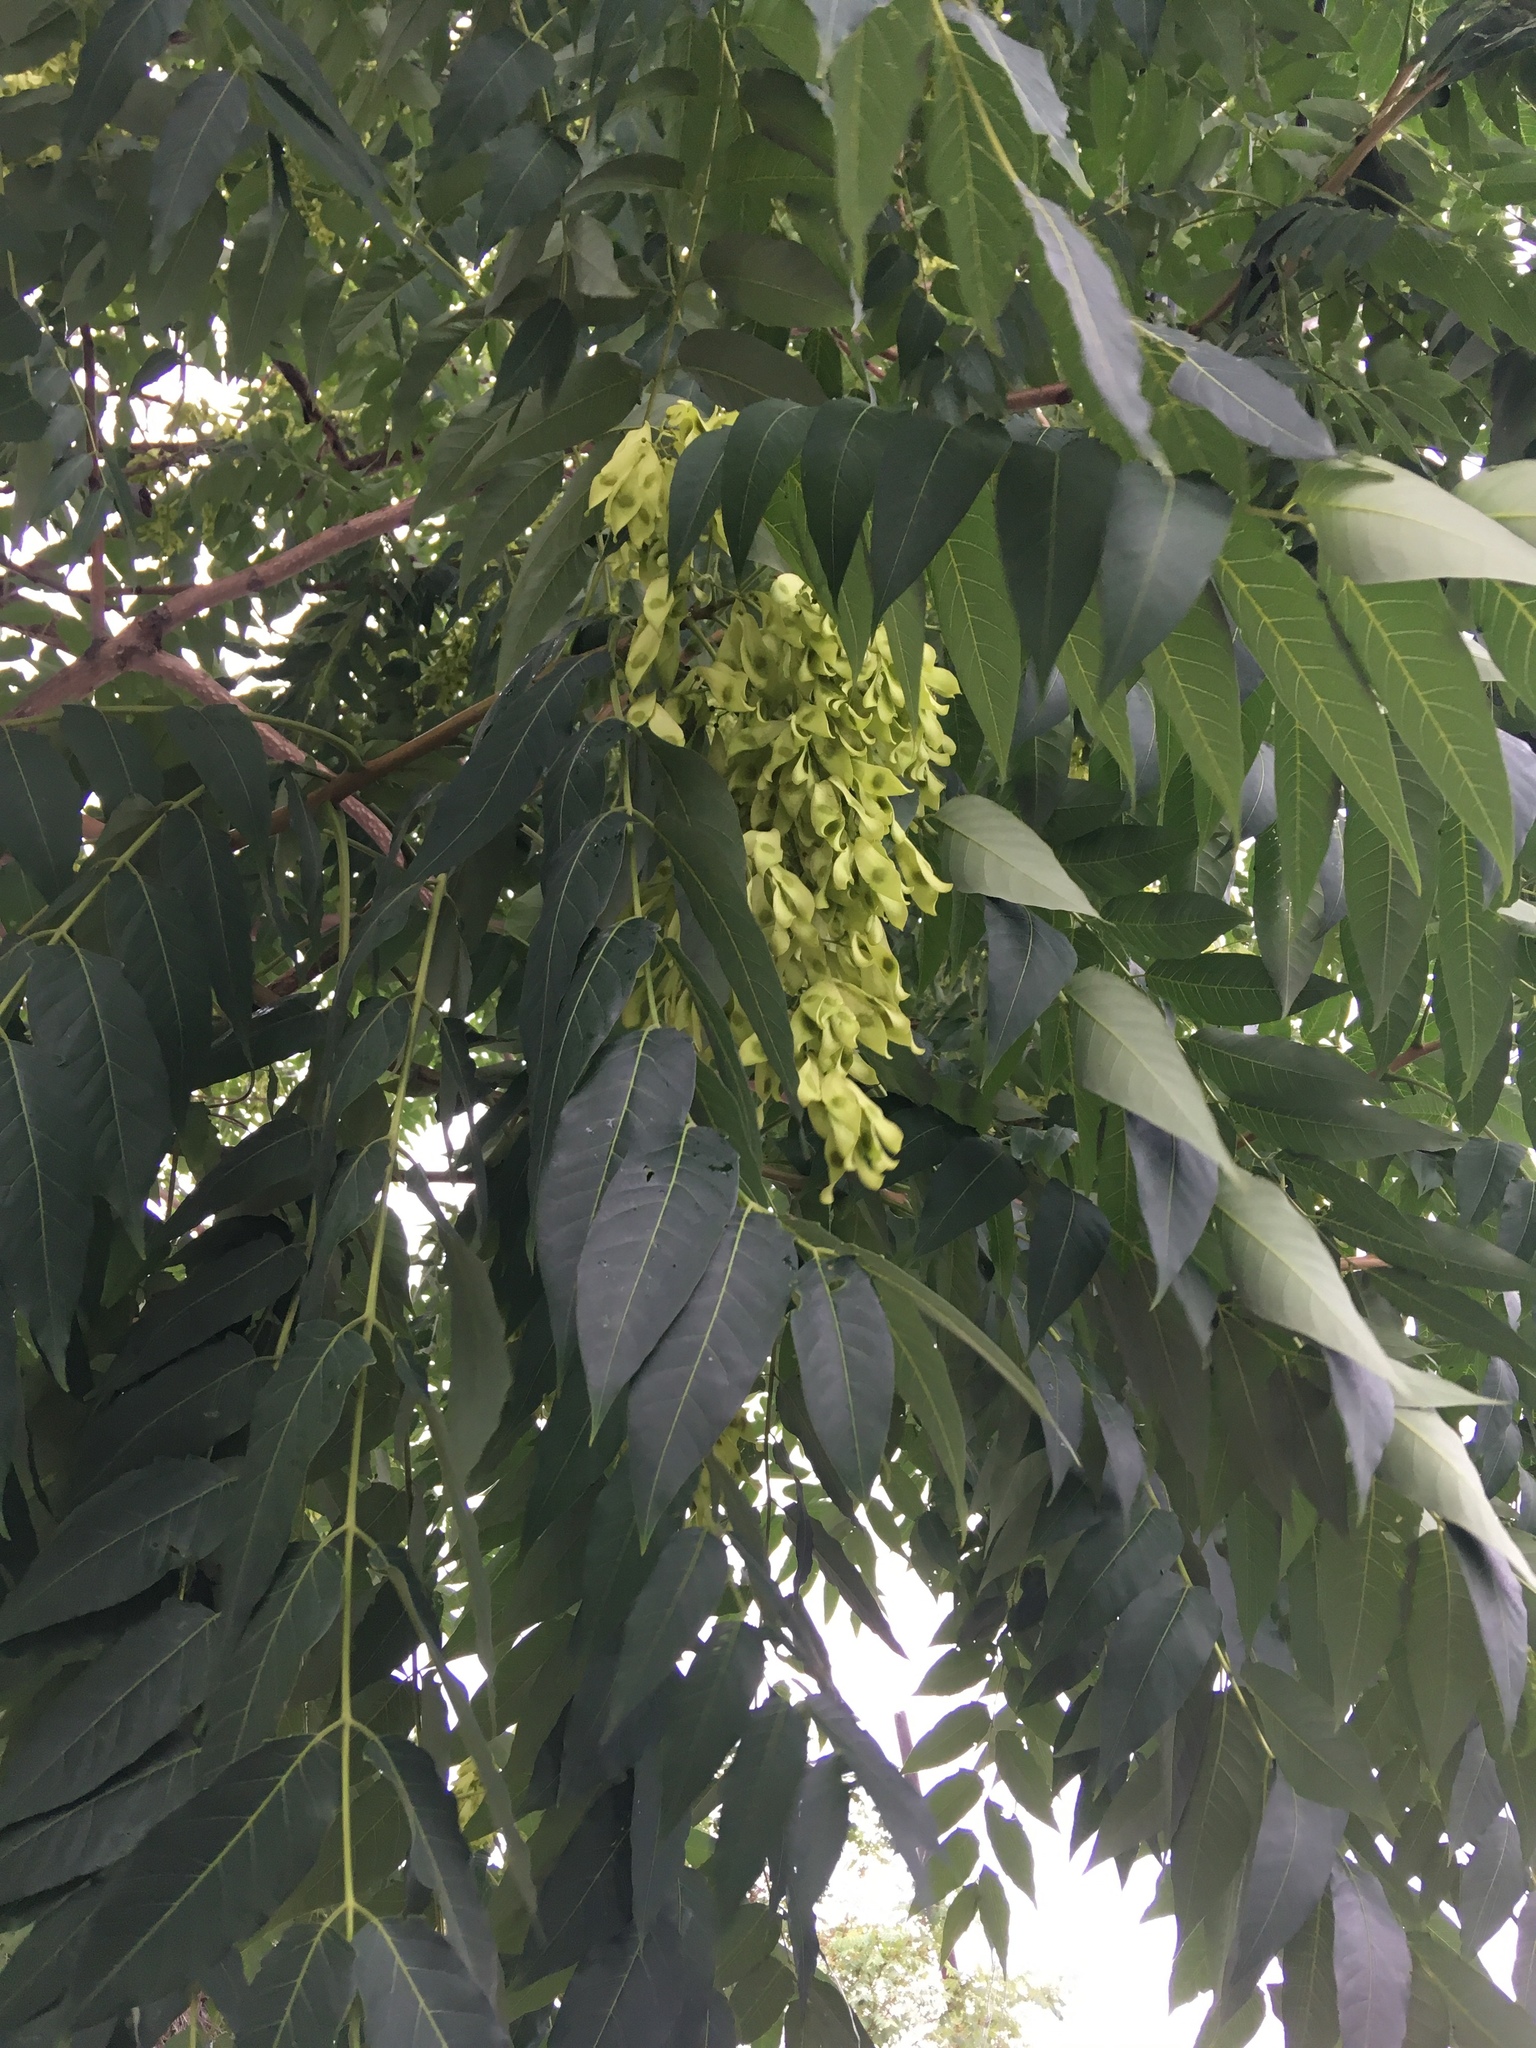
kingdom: Plantae
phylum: Tracheophyta
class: Magnoliopsida
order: Sapindales
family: Simaroubaceae
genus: Ailanthus
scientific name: Ailanthus altissima
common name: Tree-of-heaven
